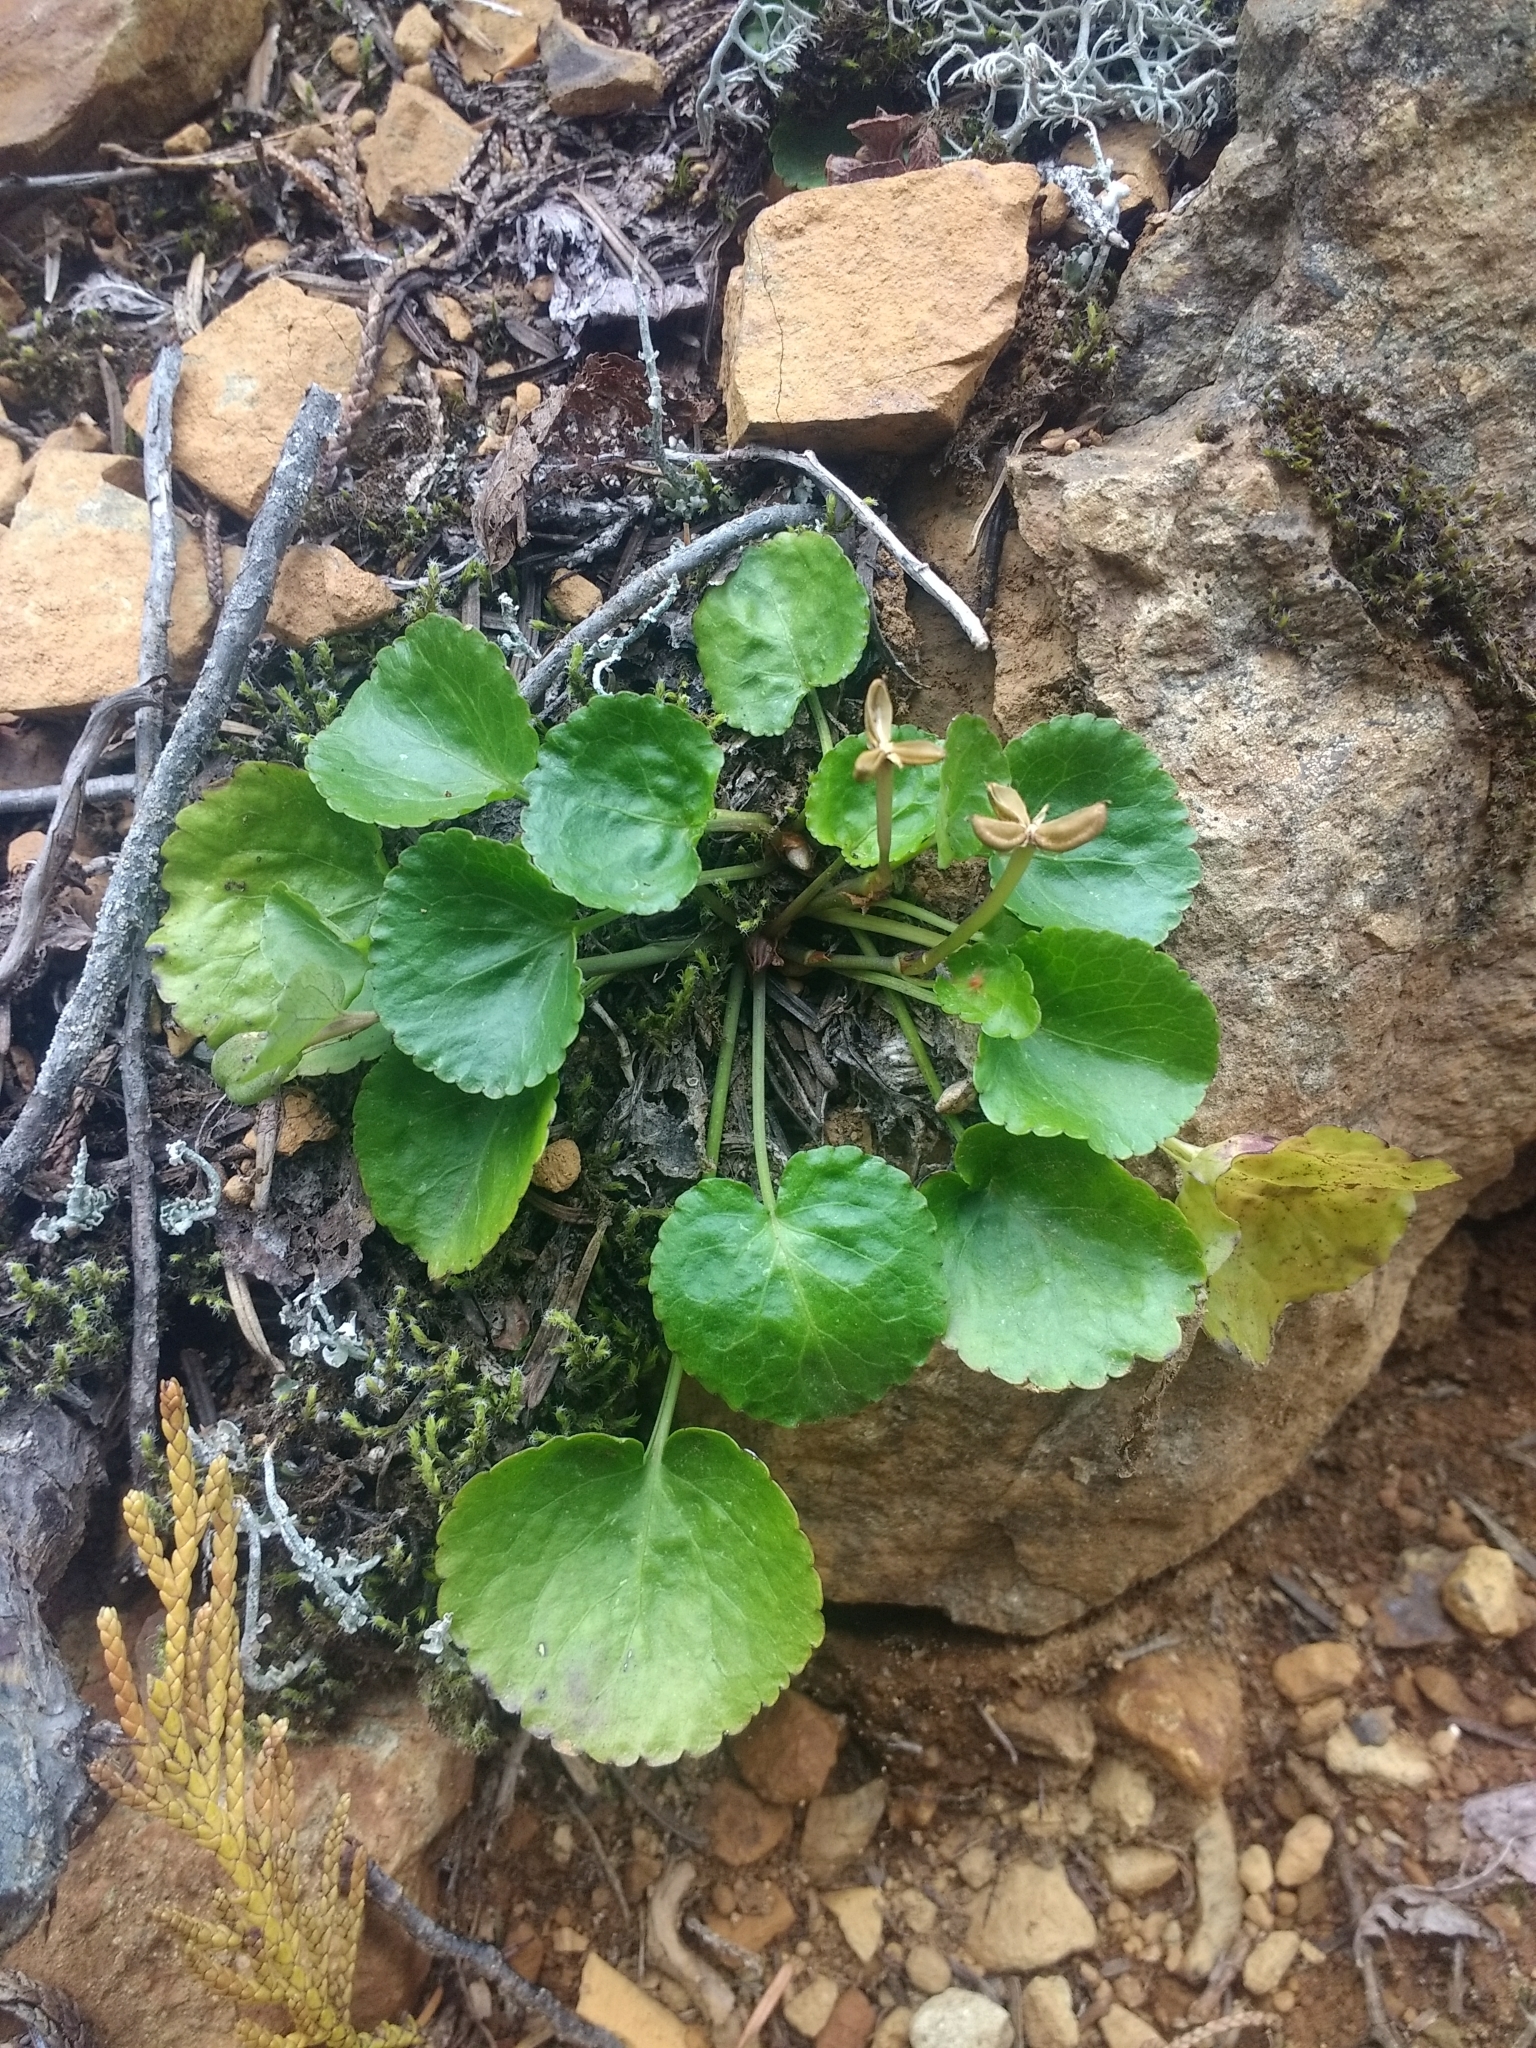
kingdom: Plantae
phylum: Tracheophyta
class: Magnoliopsida
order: Malpighiales
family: Violaceae
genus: Viola
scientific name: Viola orbiculata
